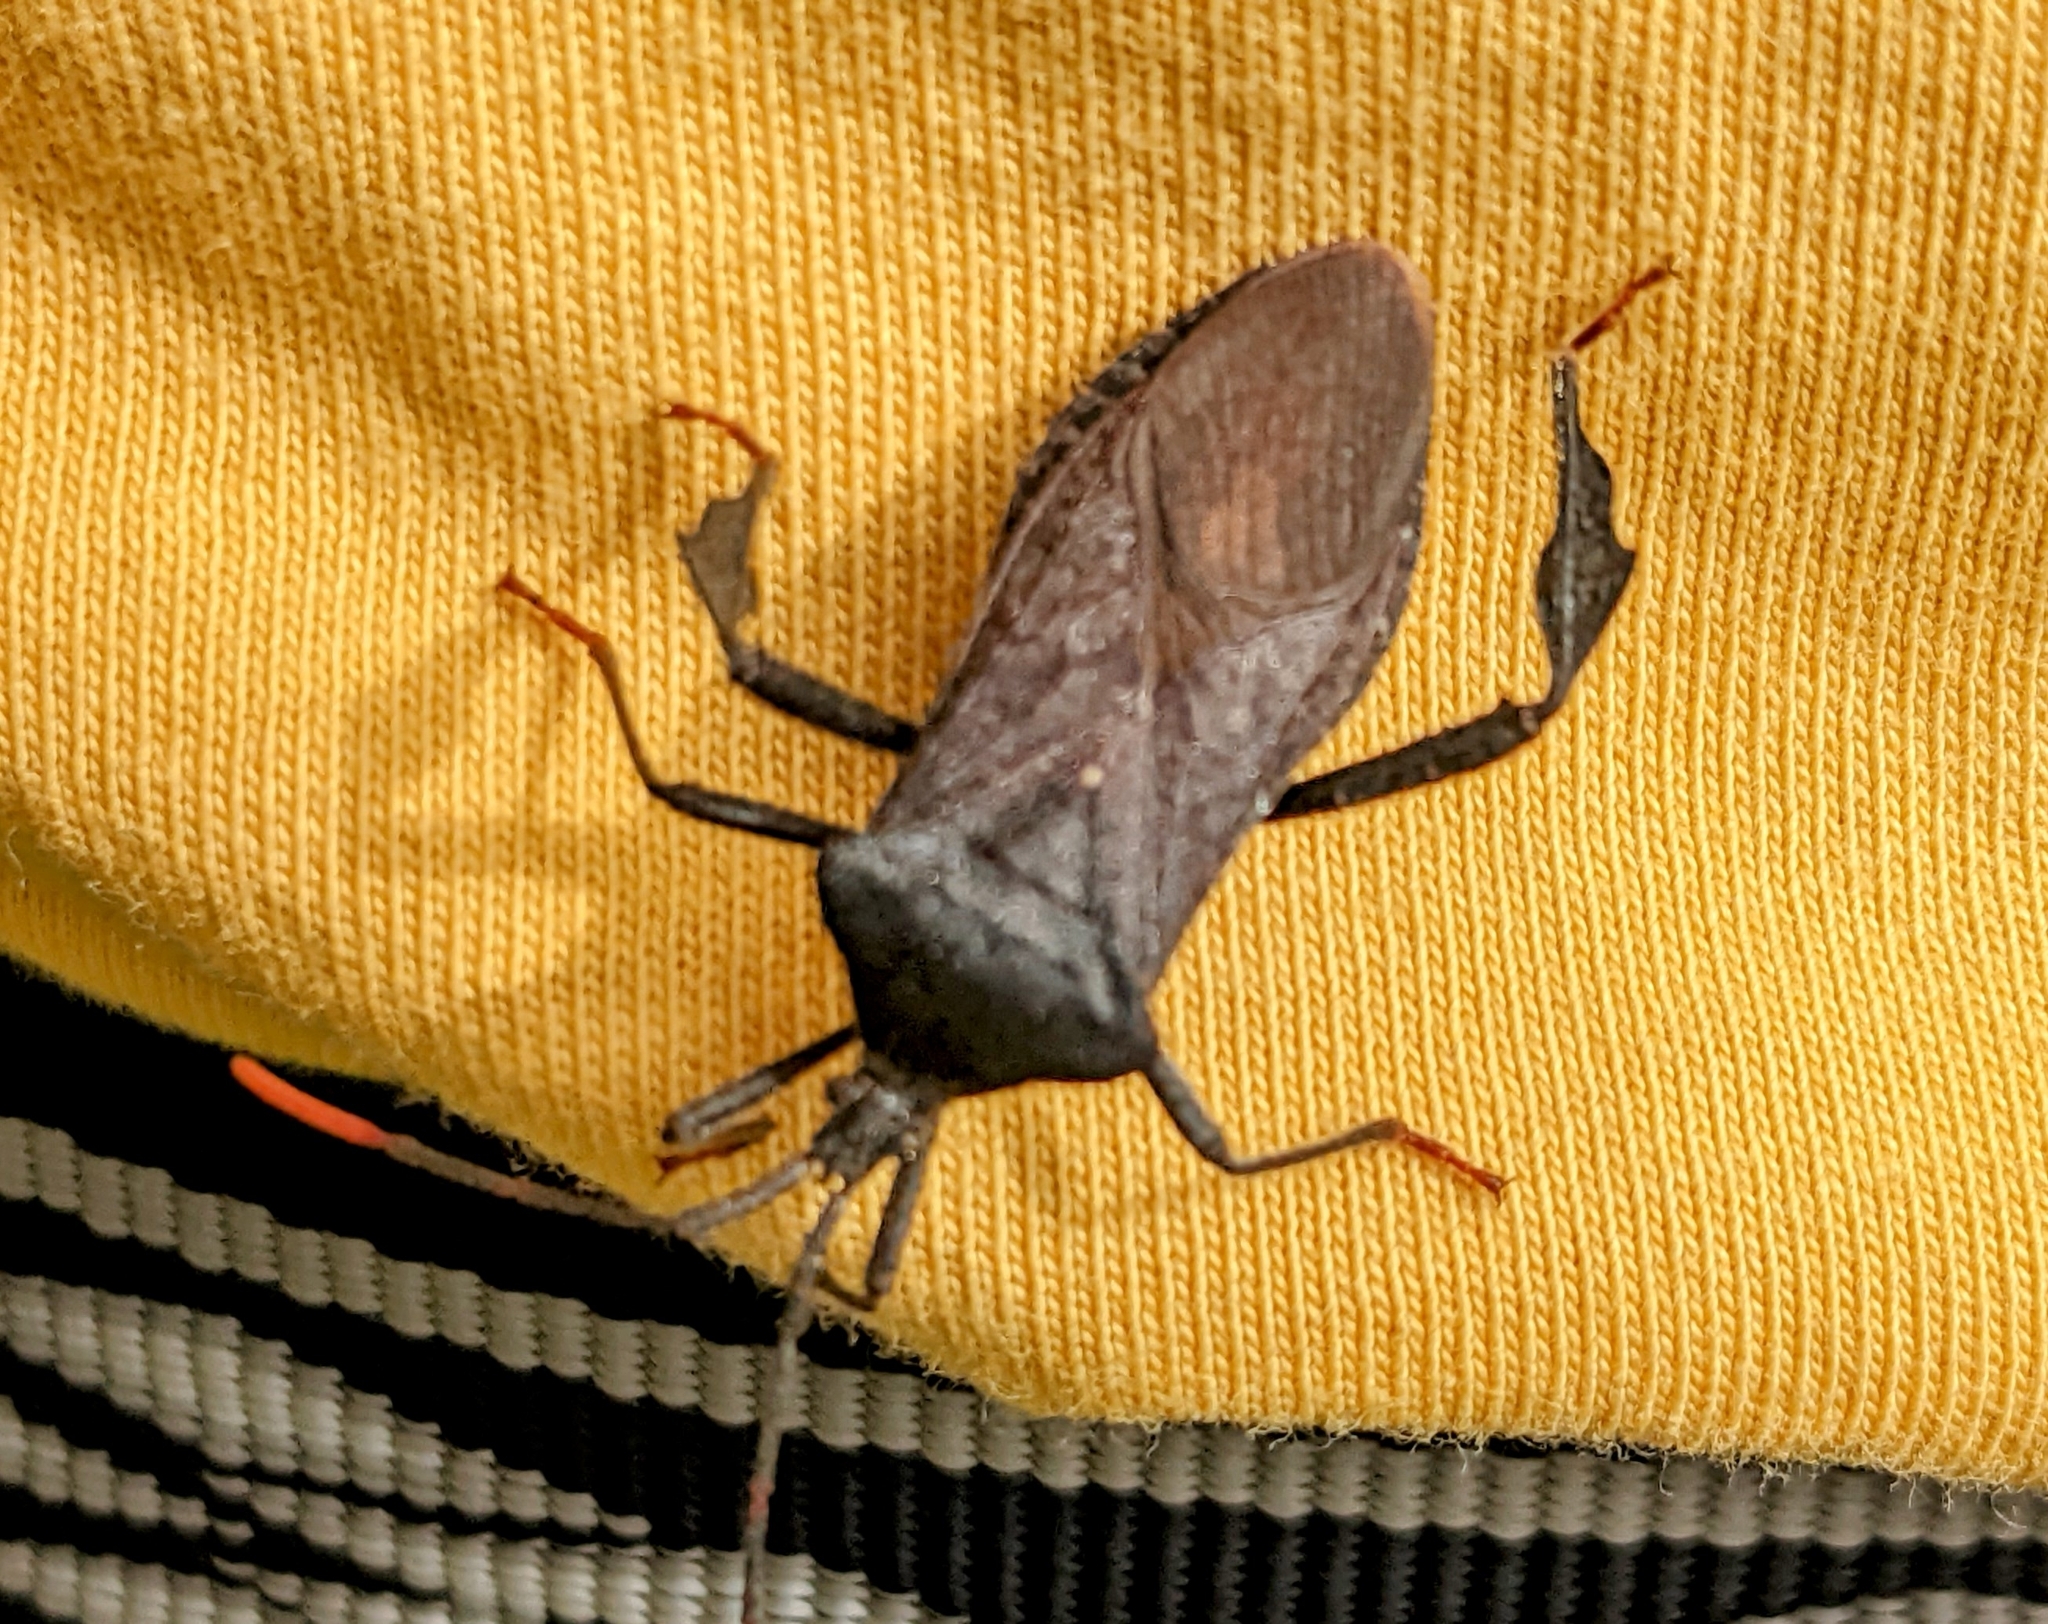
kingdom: Animalia
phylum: Arthropoda
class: Insecta
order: Hemiptera
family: Coreidae
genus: Acanthocephala
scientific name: Acanthocephala terminalis
